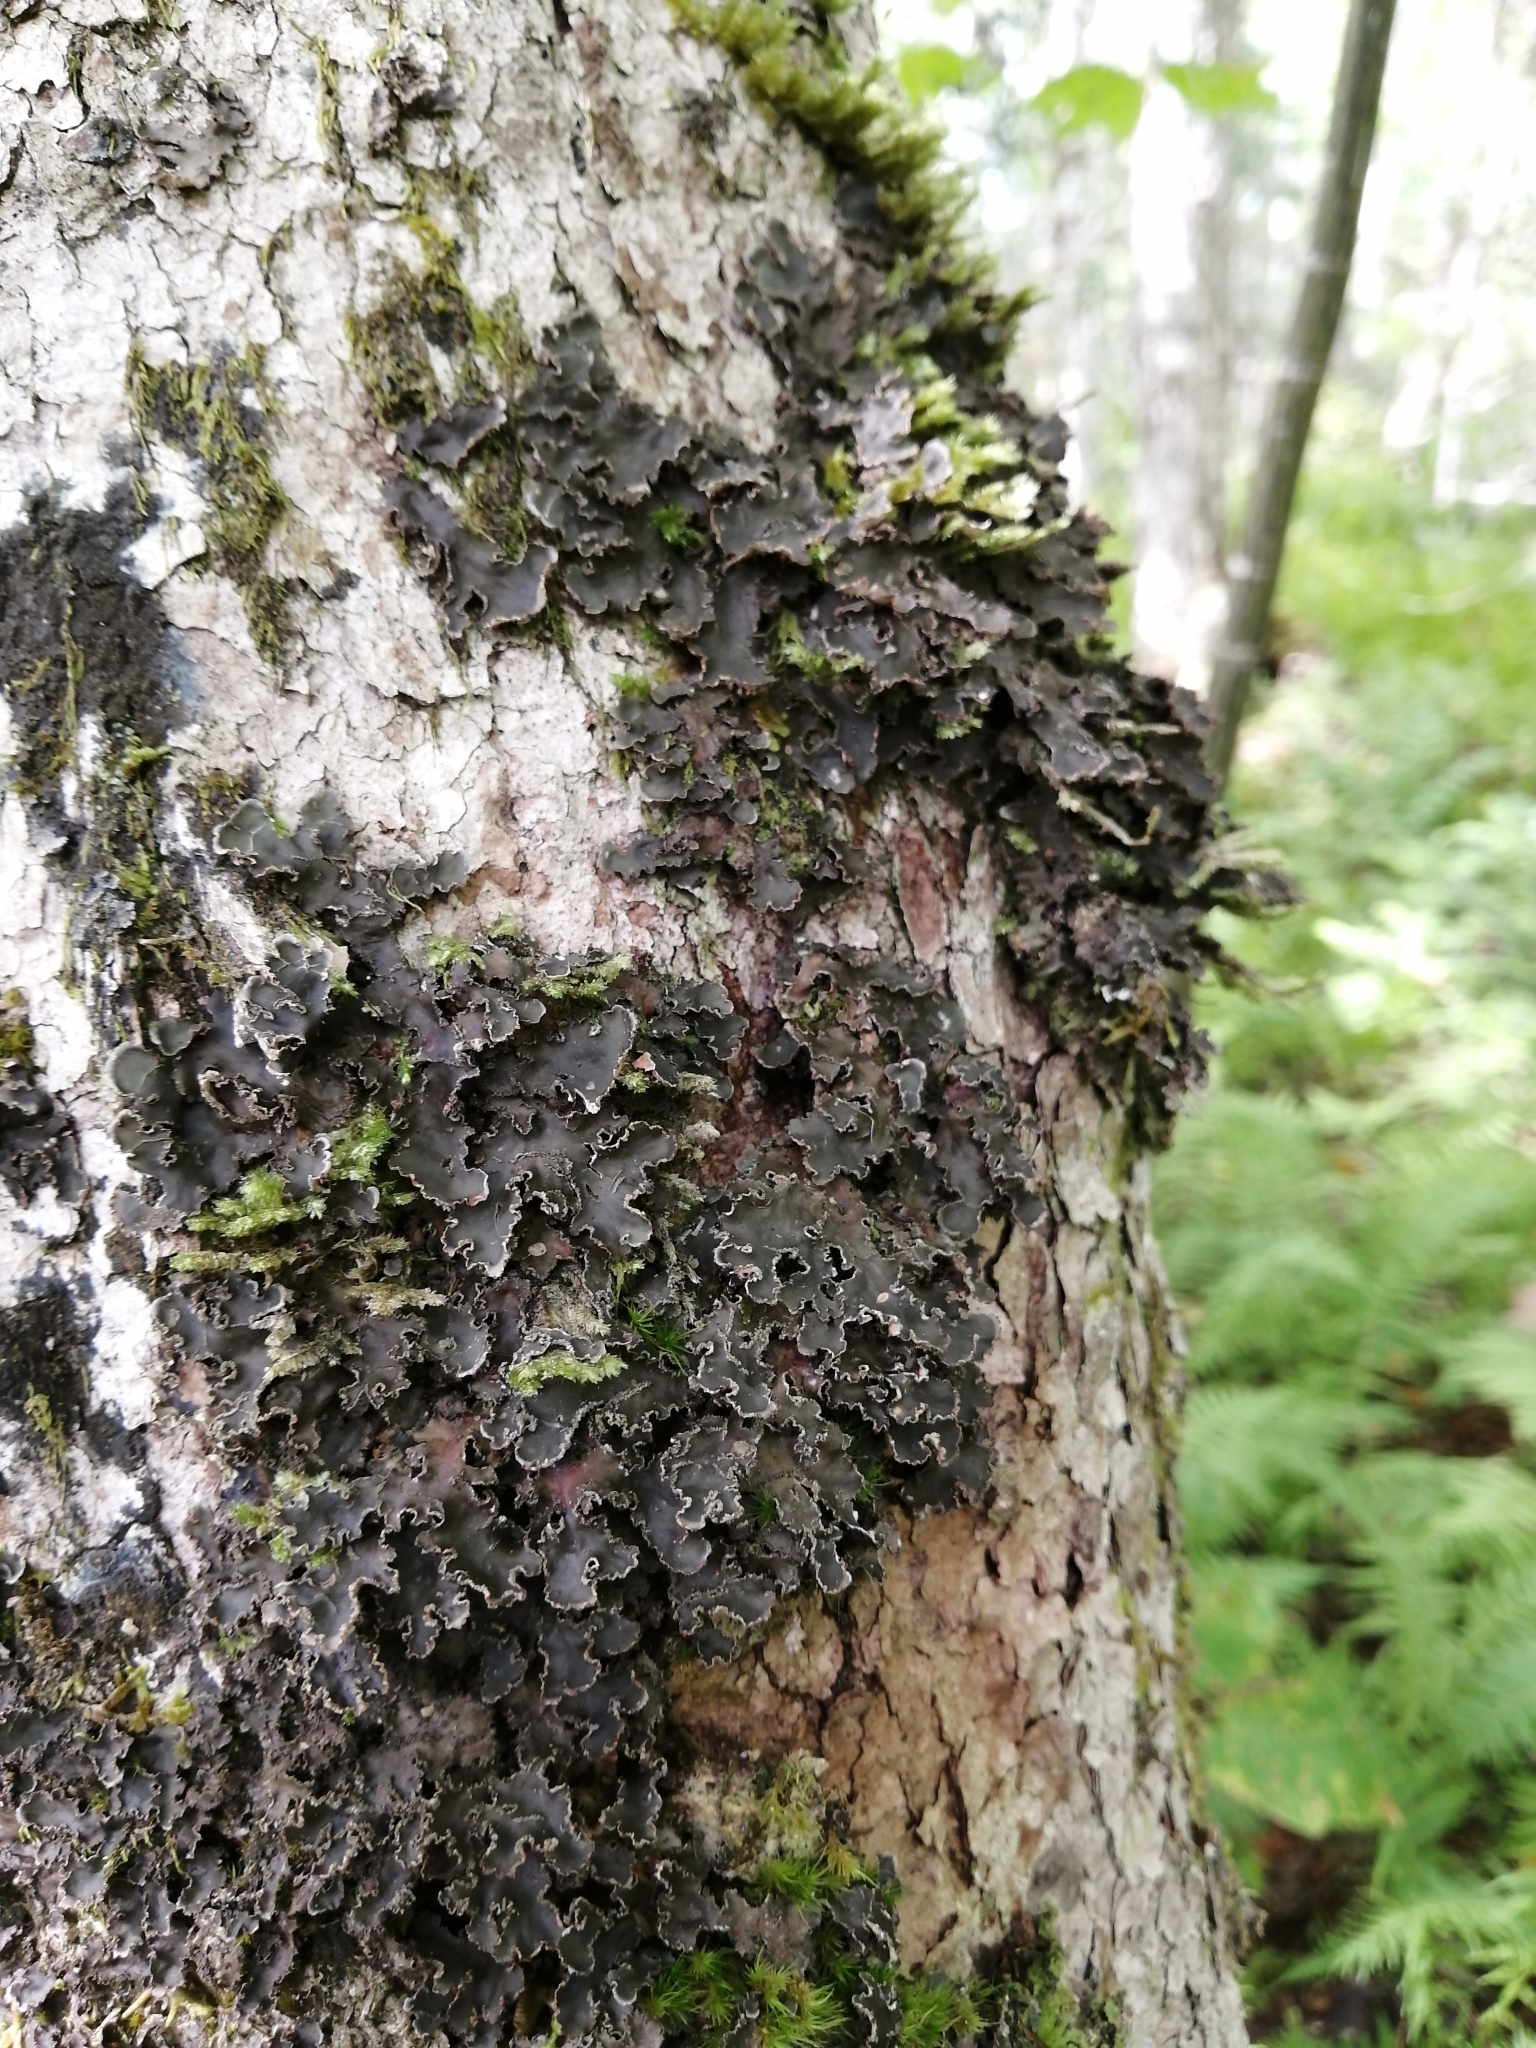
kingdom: Fungi
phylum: Ascomycota
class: Lecanoromycetes
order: Peltigerales
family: Peltigeraceae
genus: Peltigera
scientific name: Peltigera collina
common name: Gritty tree pelt lichen
